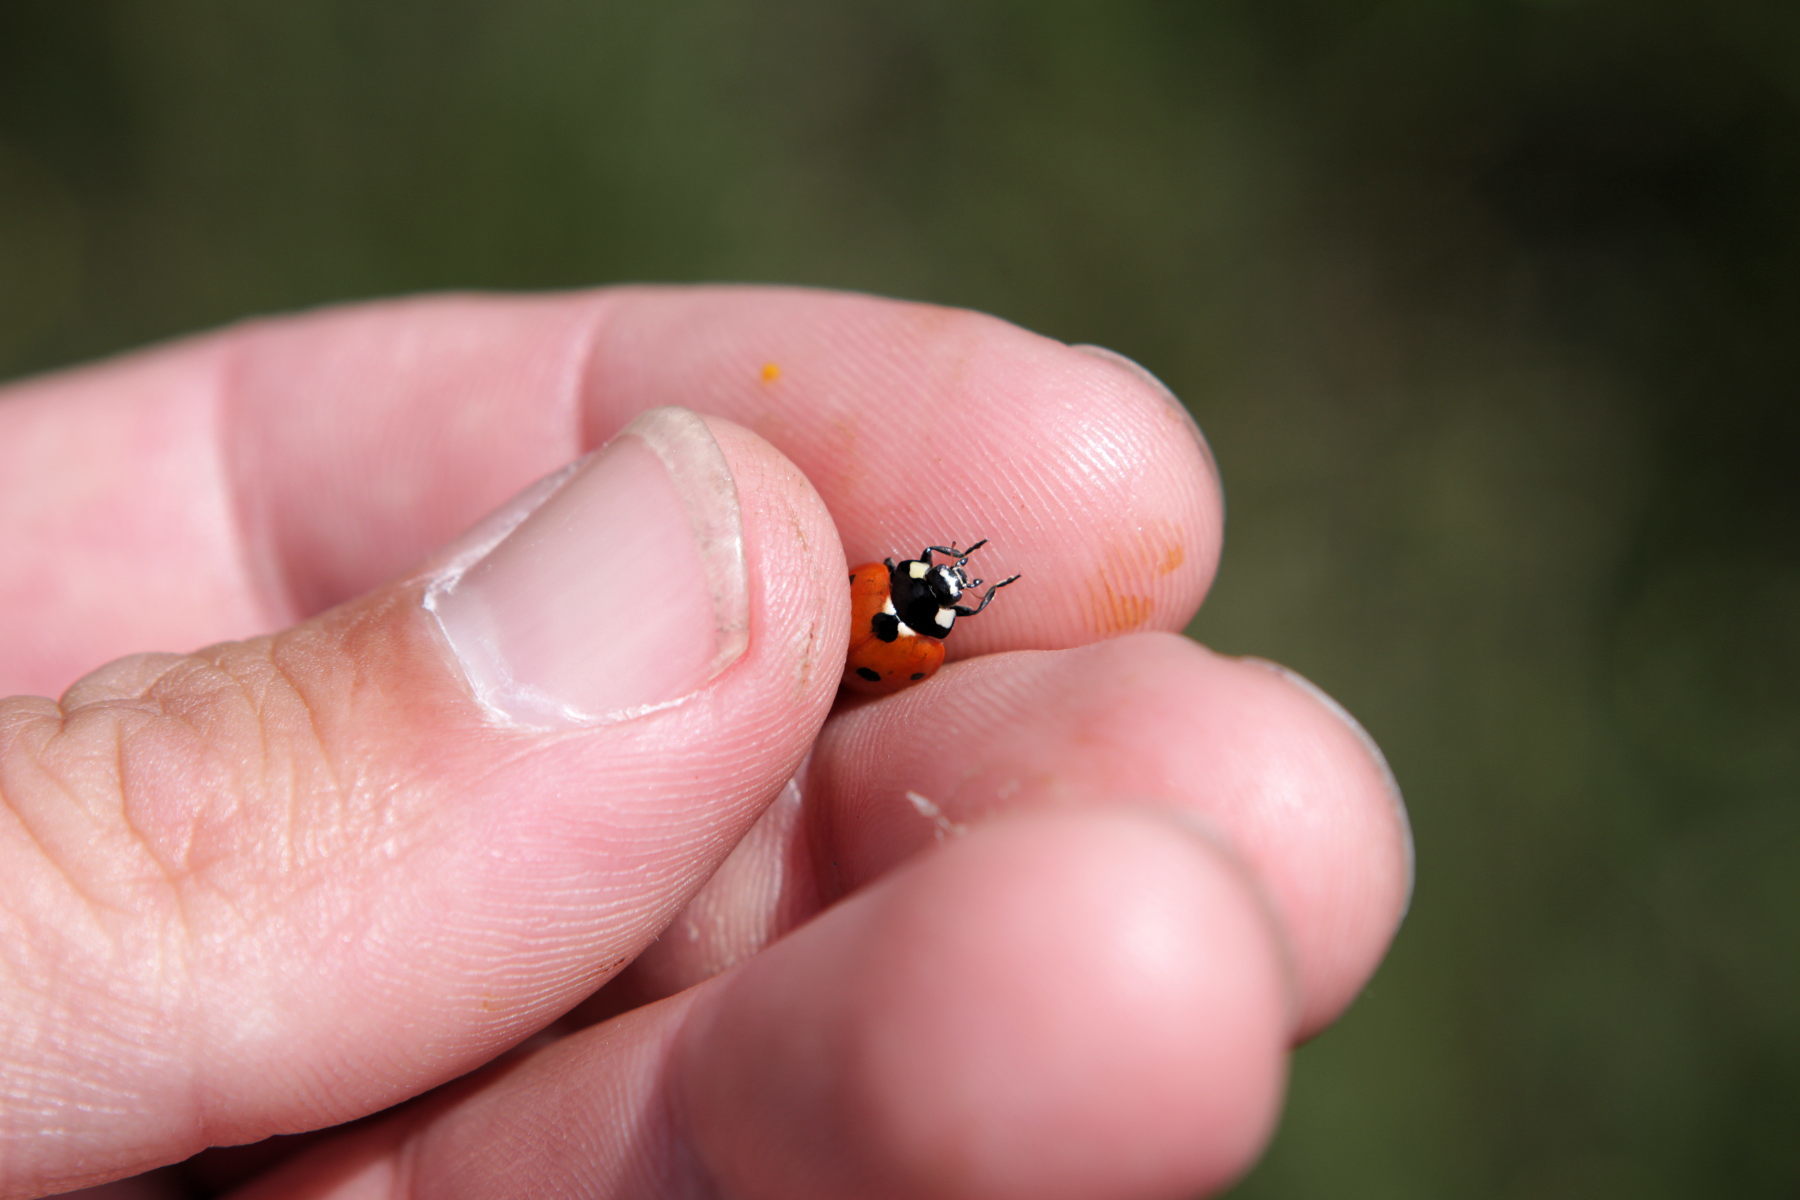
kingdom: Animalia
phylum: Arthropoda
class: Insecta
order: Coleoptera
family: Coccinellidae
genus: Coccinella
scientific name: Coccinella septempunctata
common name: Sevenspotted lady beetle
